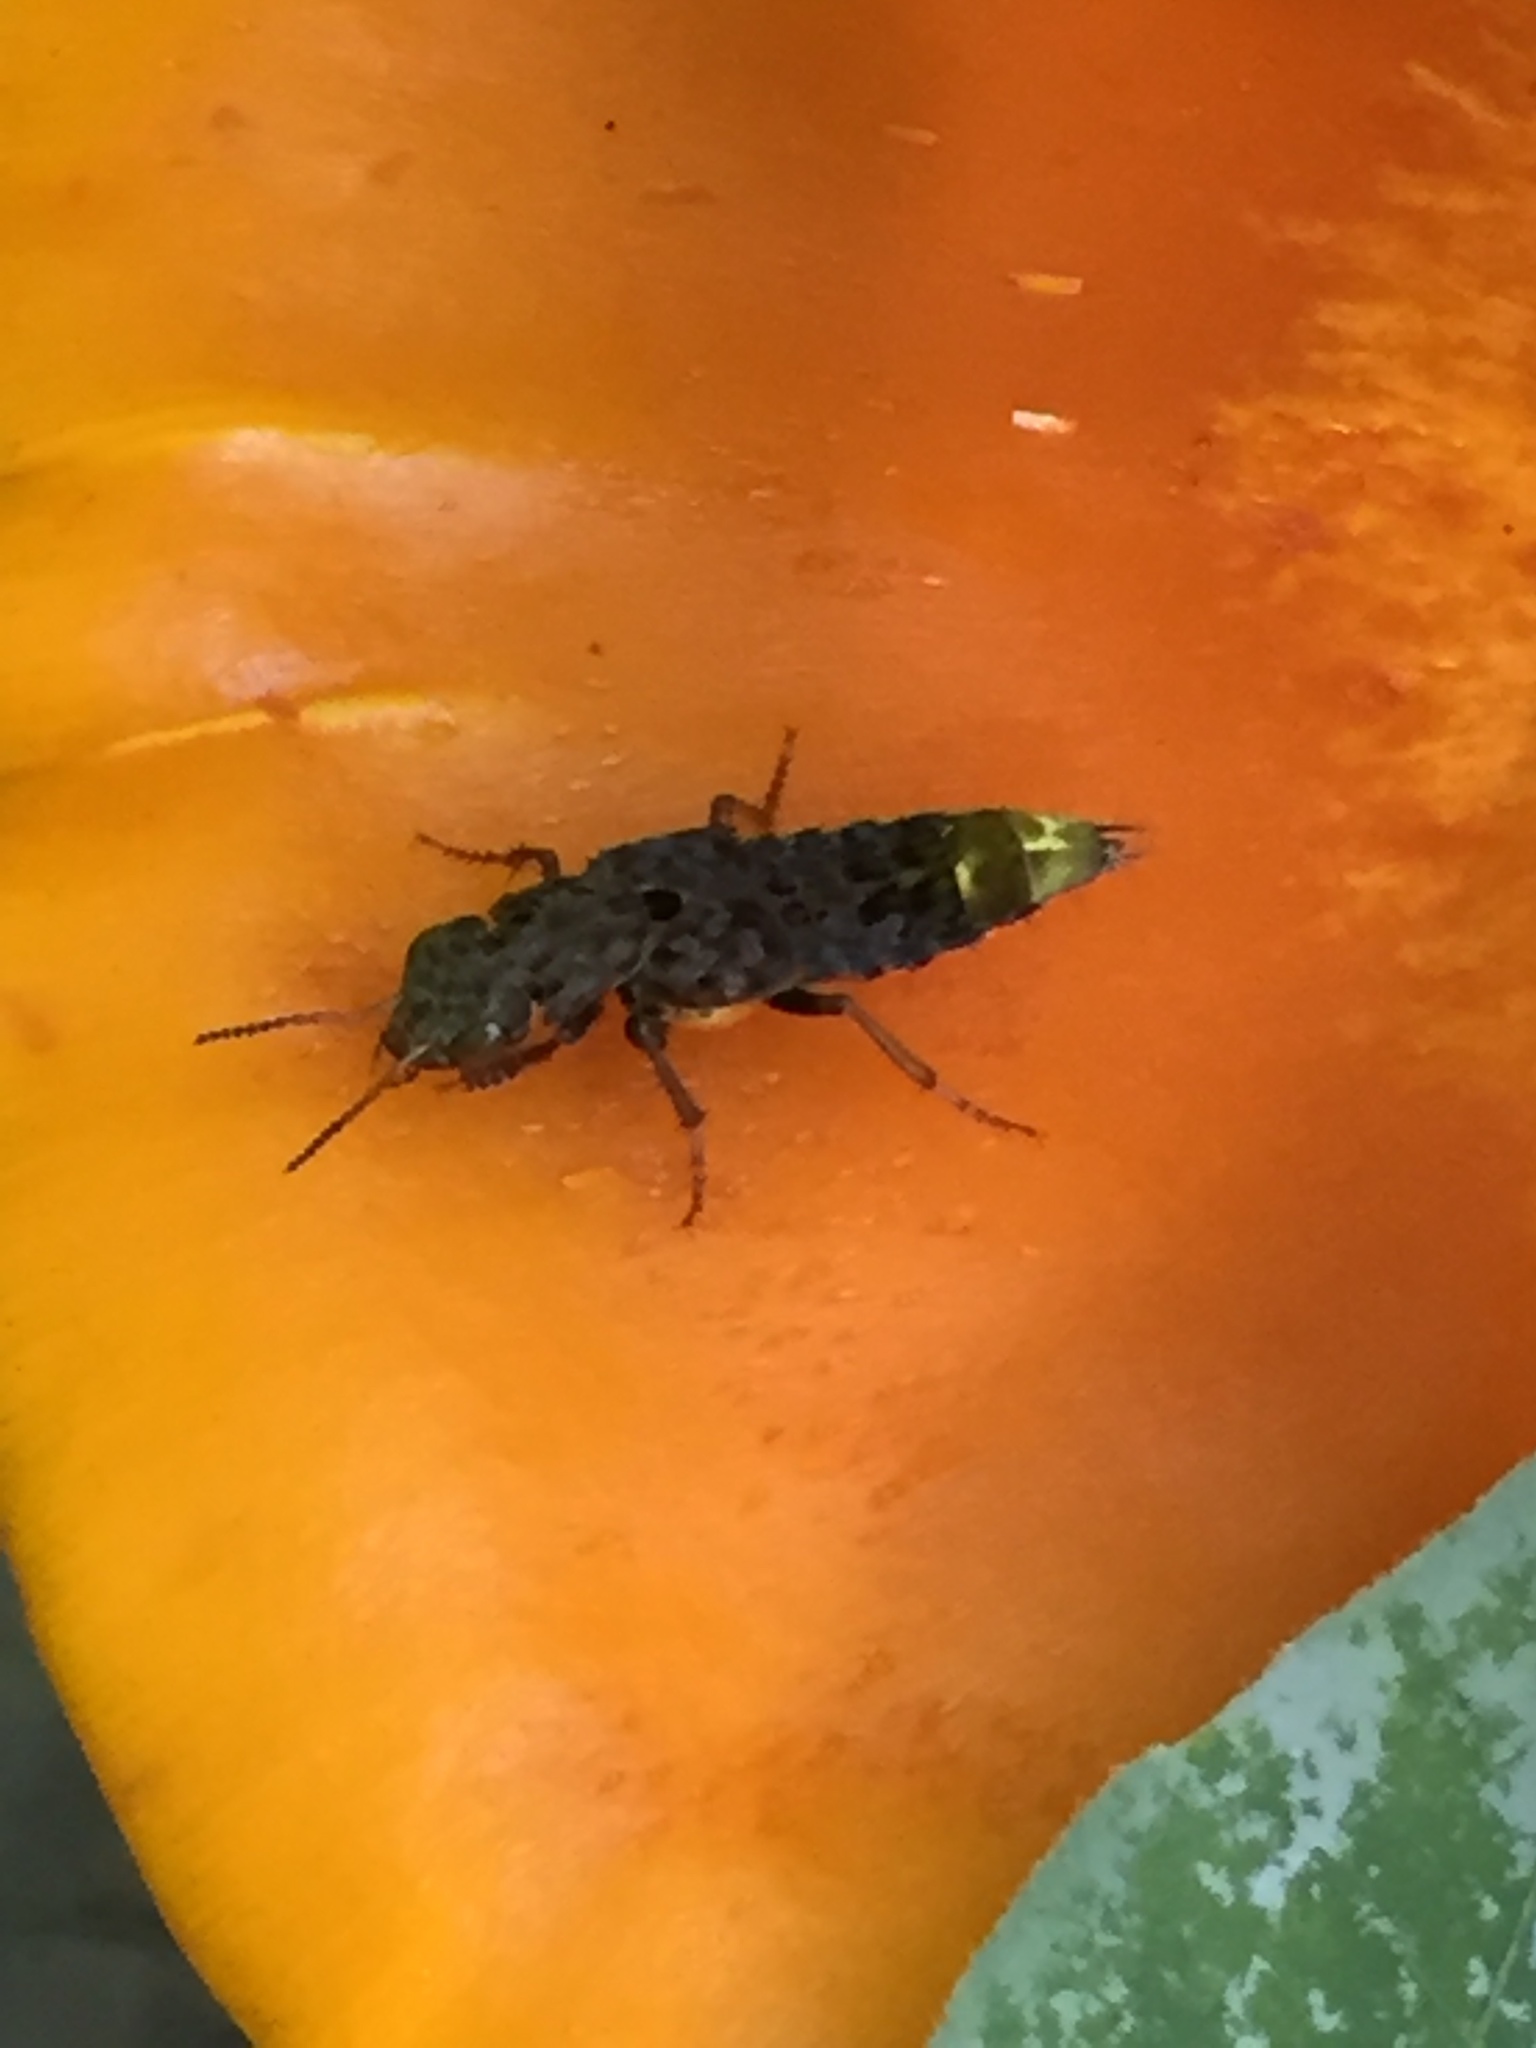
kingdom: Animalia
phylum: Arthropoda
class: Insecta
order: Coleoptera
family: Staphylinidae
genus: Ontholestes
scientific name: Ontholestes cingulatus
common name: Gold-and-brown rove beetle
